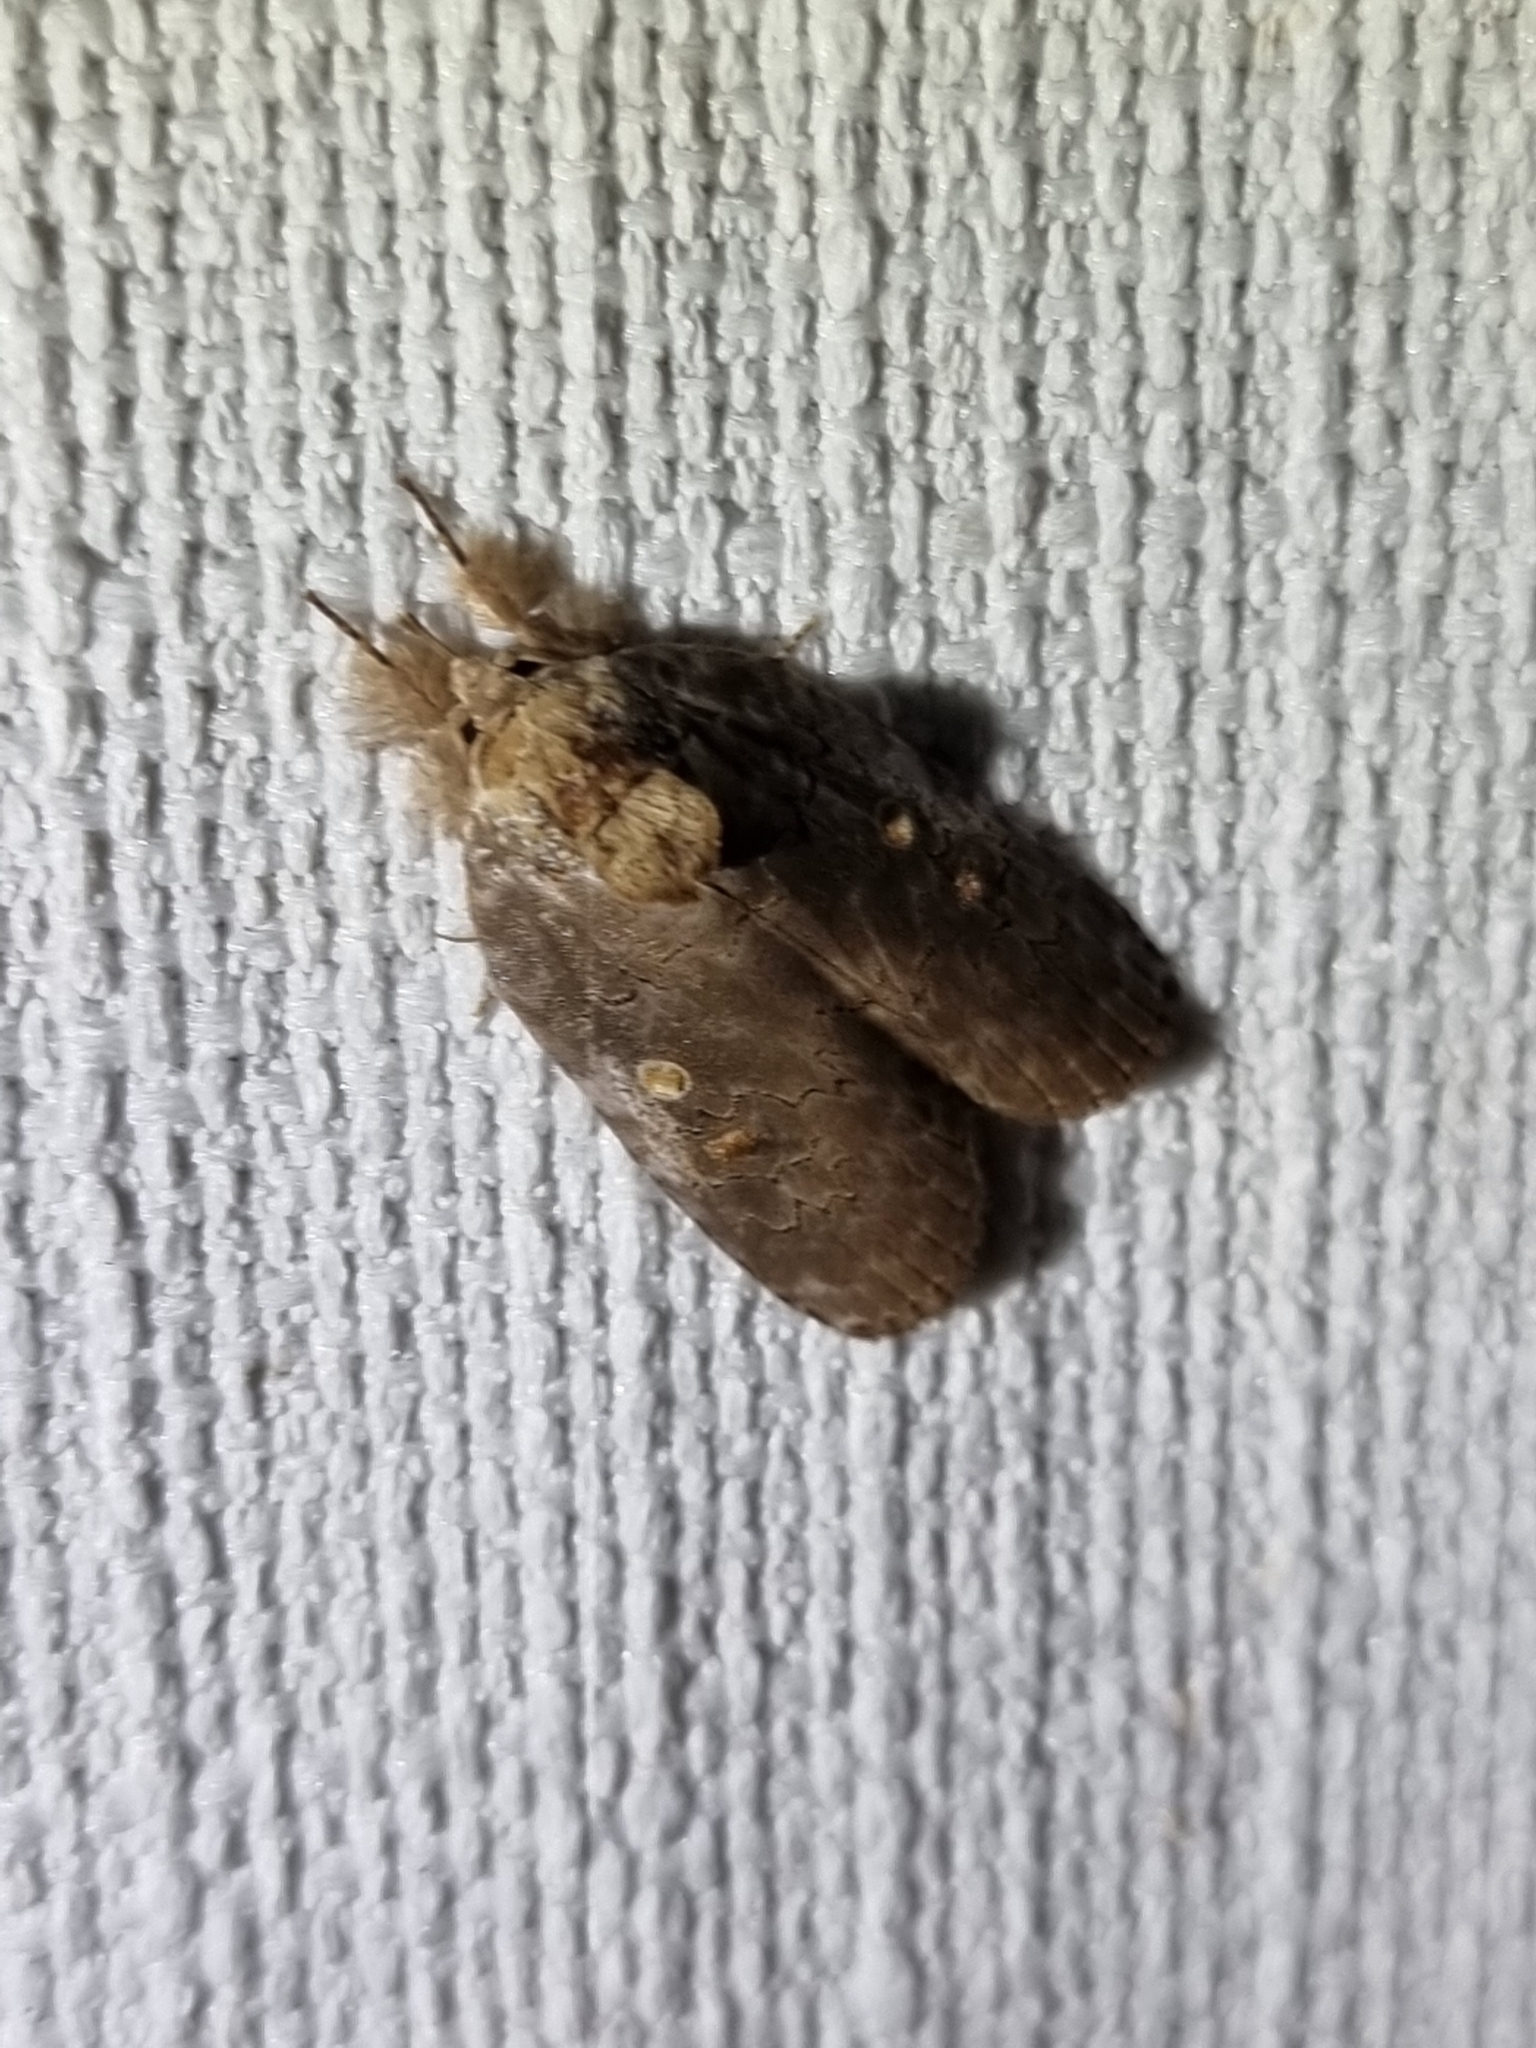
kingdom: Animalia
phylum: Arthropoda
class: Insecta
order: Lepidoptera
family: Noctuidae
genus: Ochthophora
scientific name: Ochthophora sericina
